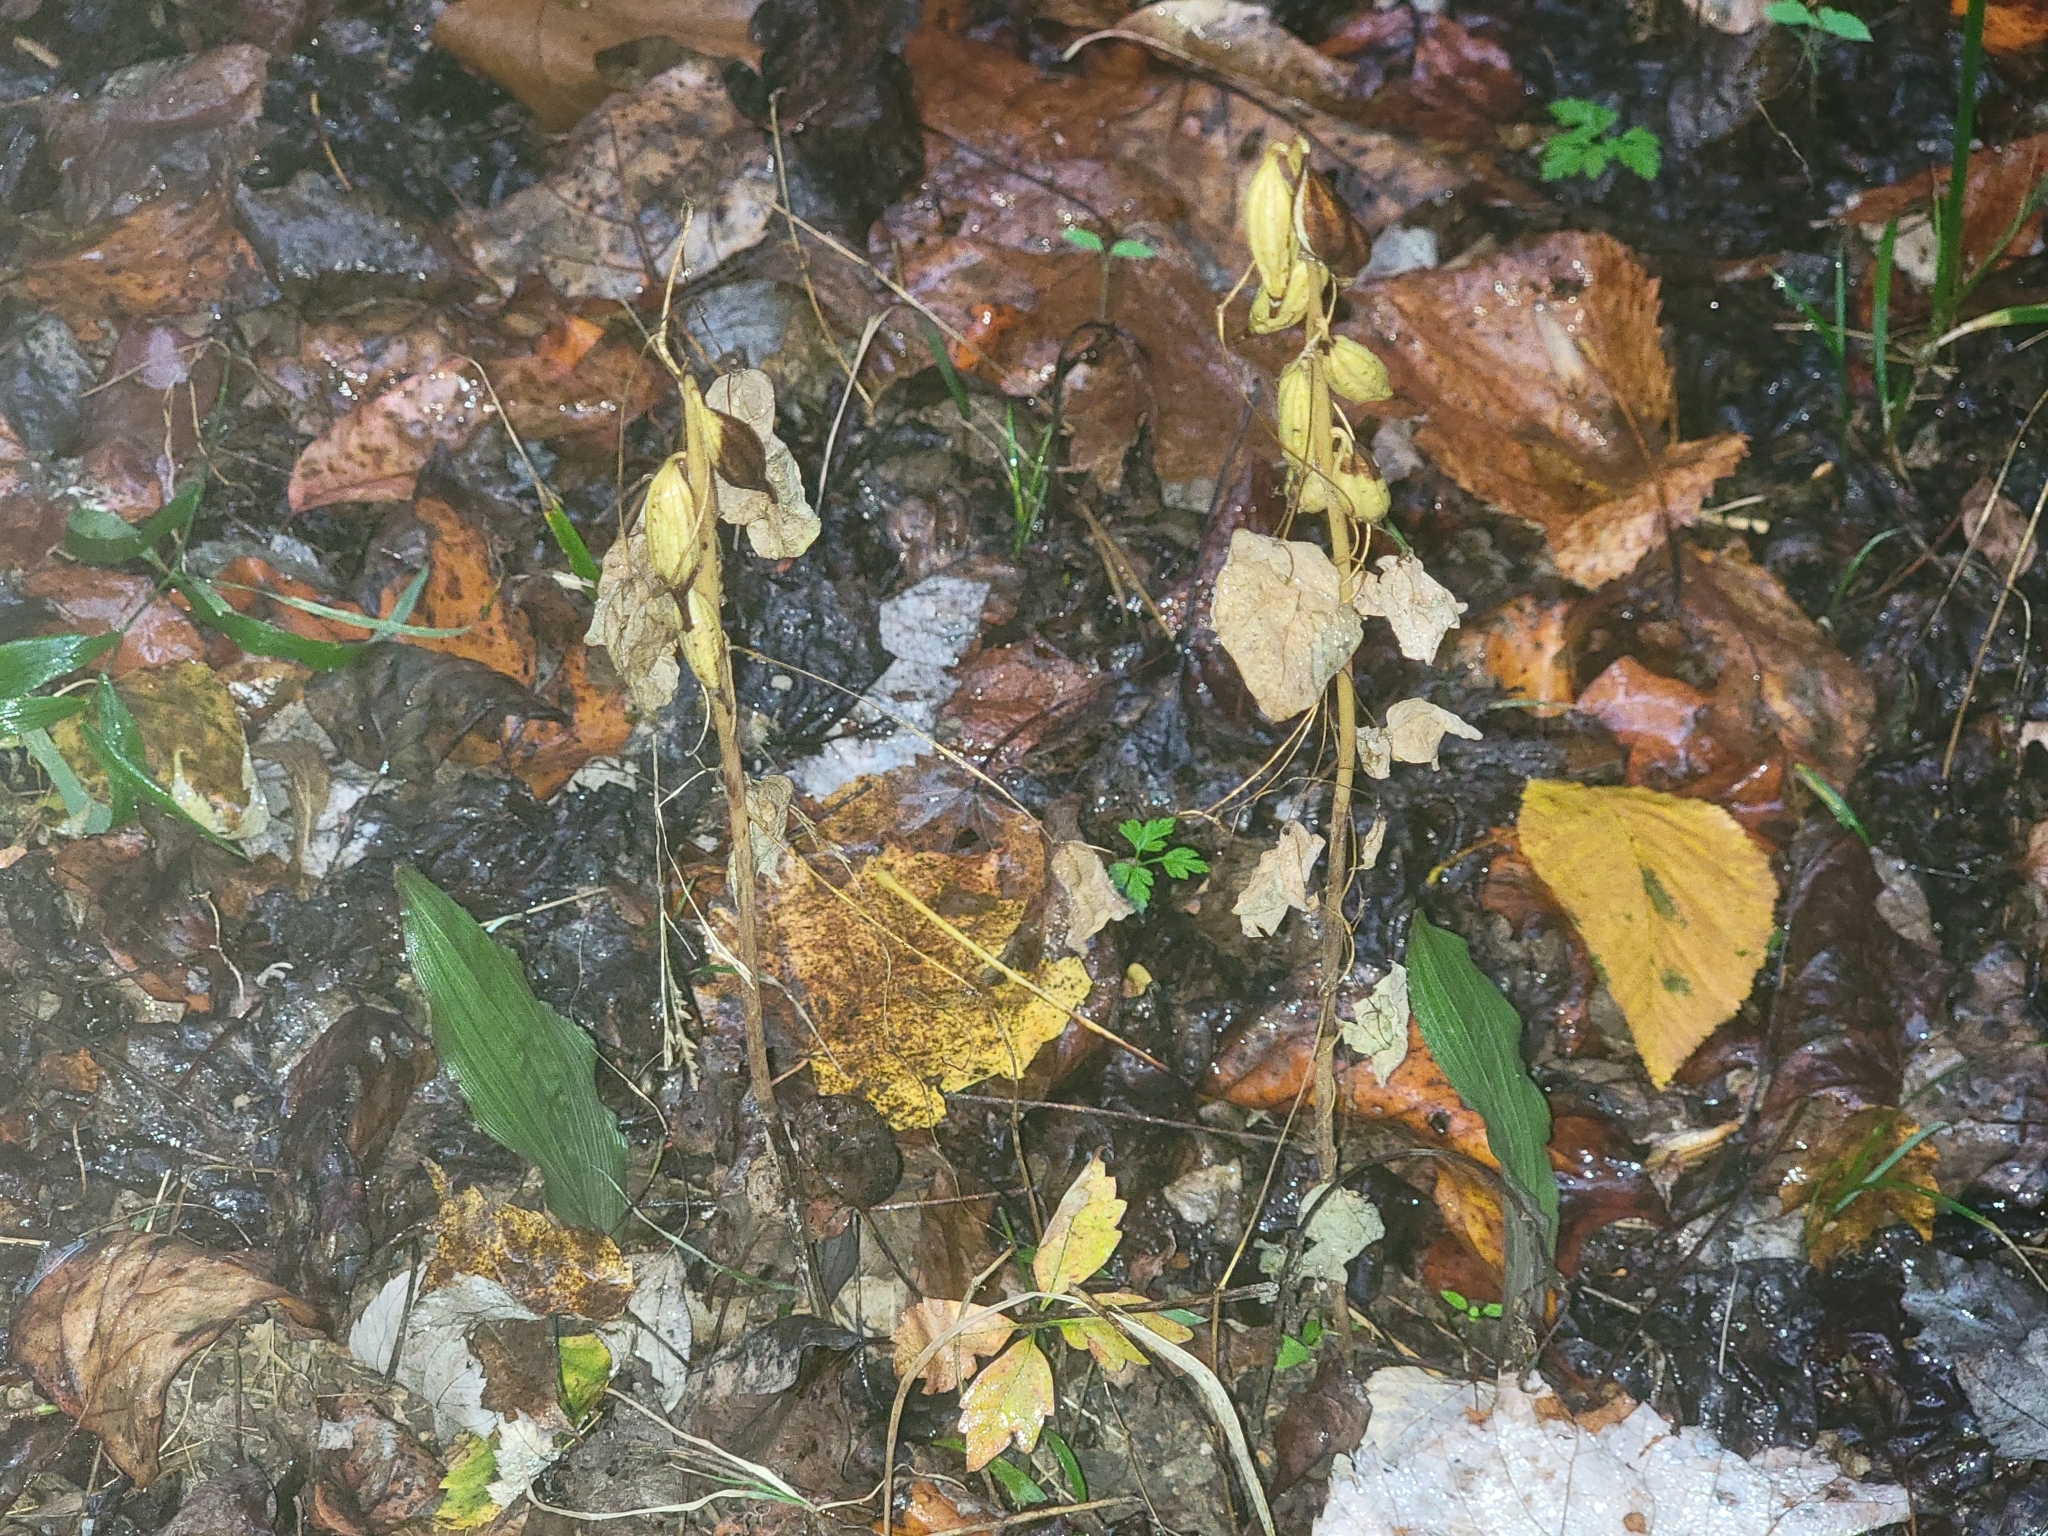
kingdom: Plantae
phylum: Tracheophyta
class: Liliopsida
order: Asparagales
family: Orchidaceae
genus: Aplectrum
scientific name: Aplectrum hyemale
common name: Adam-and-eve
